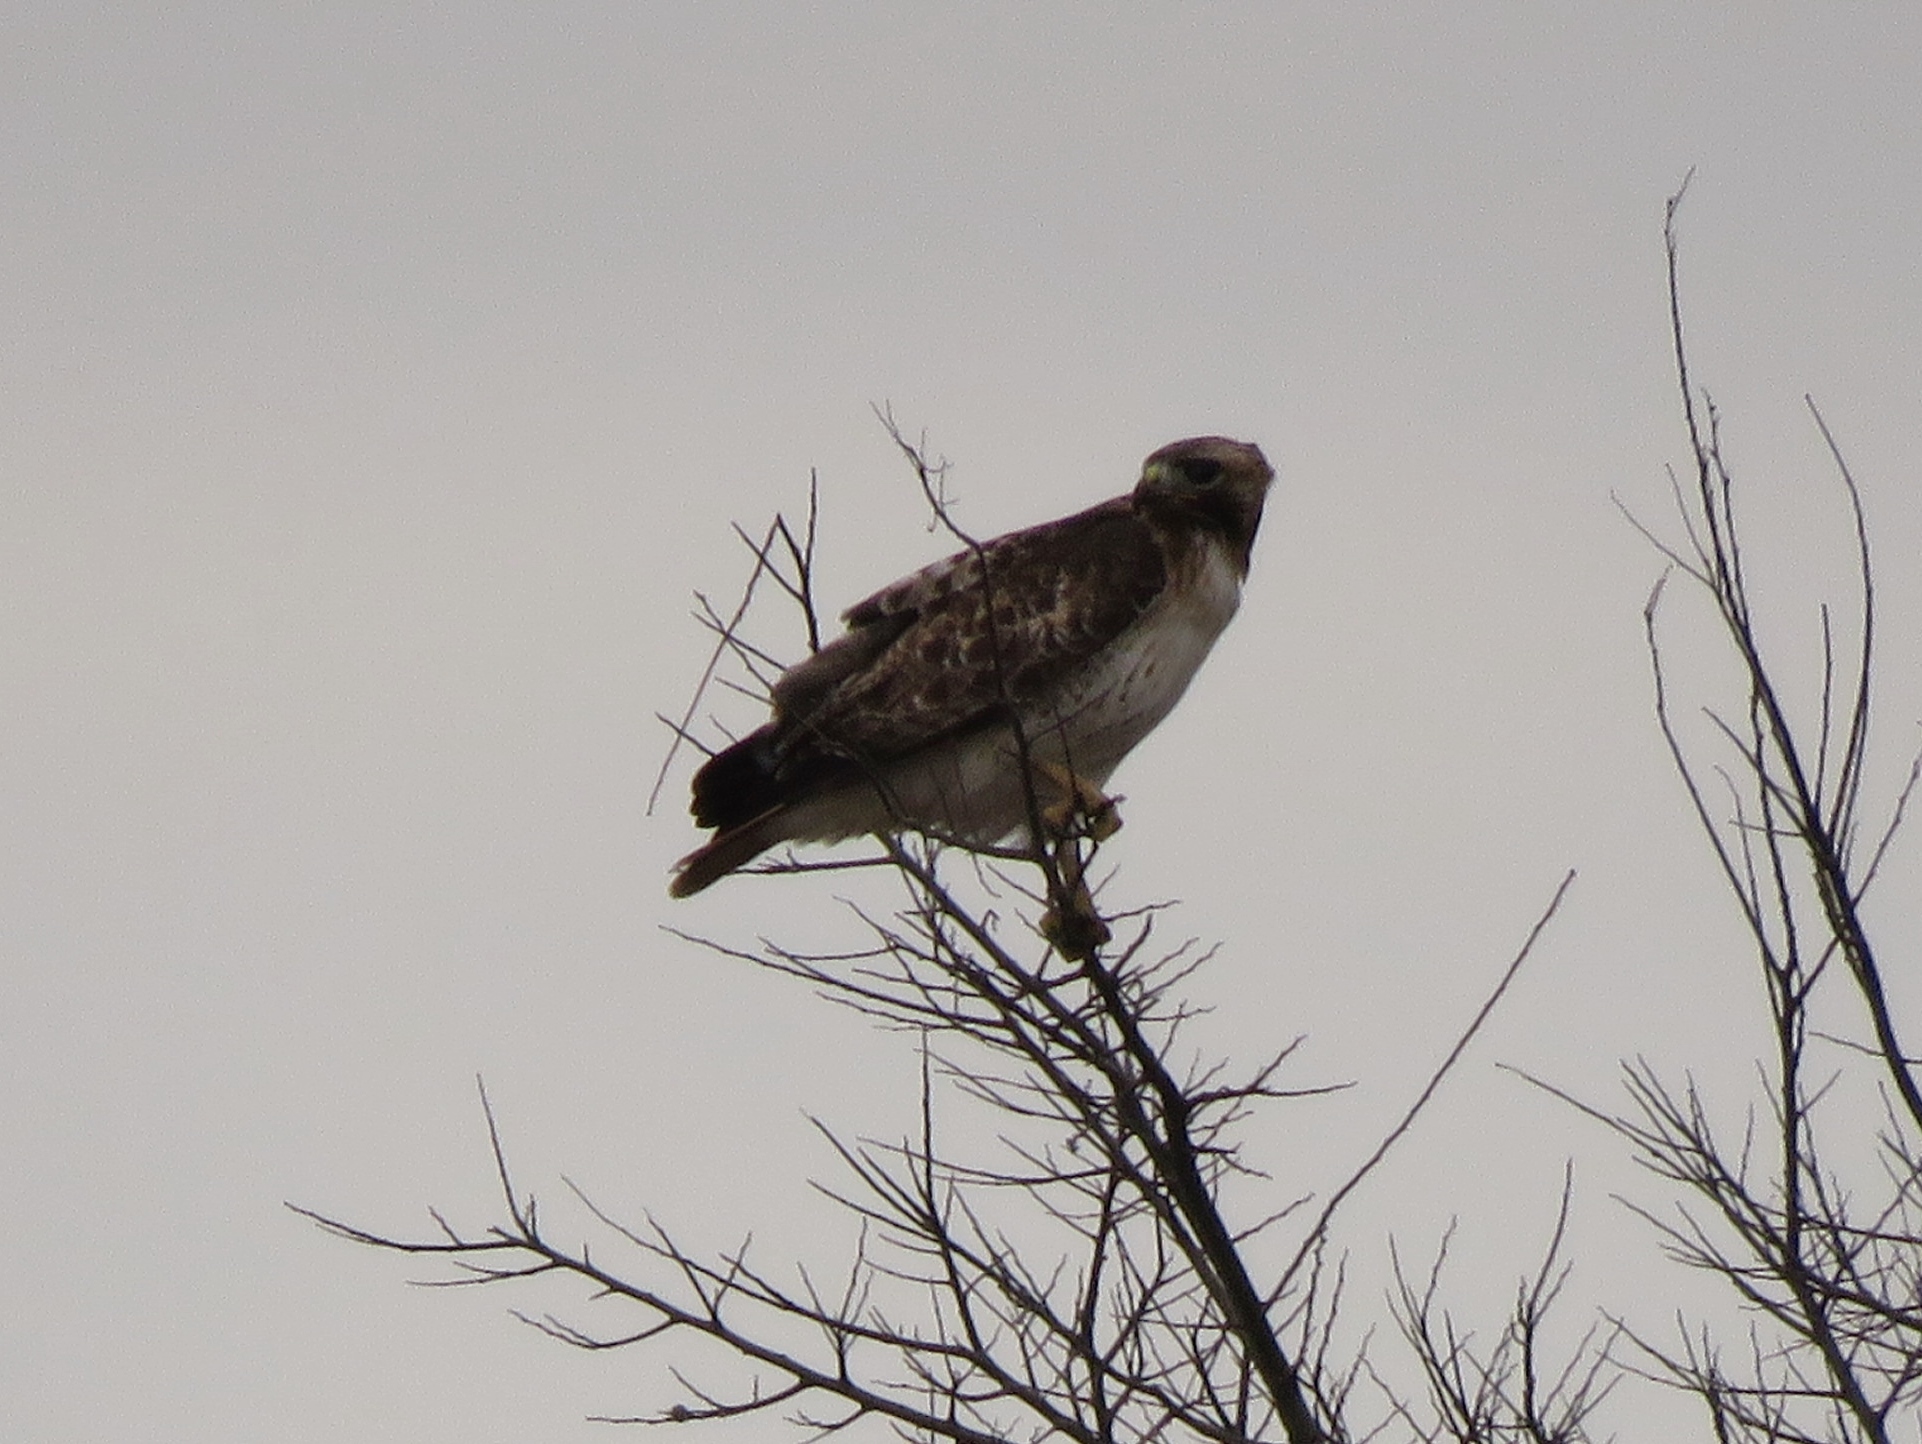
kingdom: Animalia
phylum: Chordata
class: Aves
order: Accipitriformes
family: Accipitridae
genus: Buteo
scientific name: Buteo jamaicensis
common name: Red-tailed hawk
